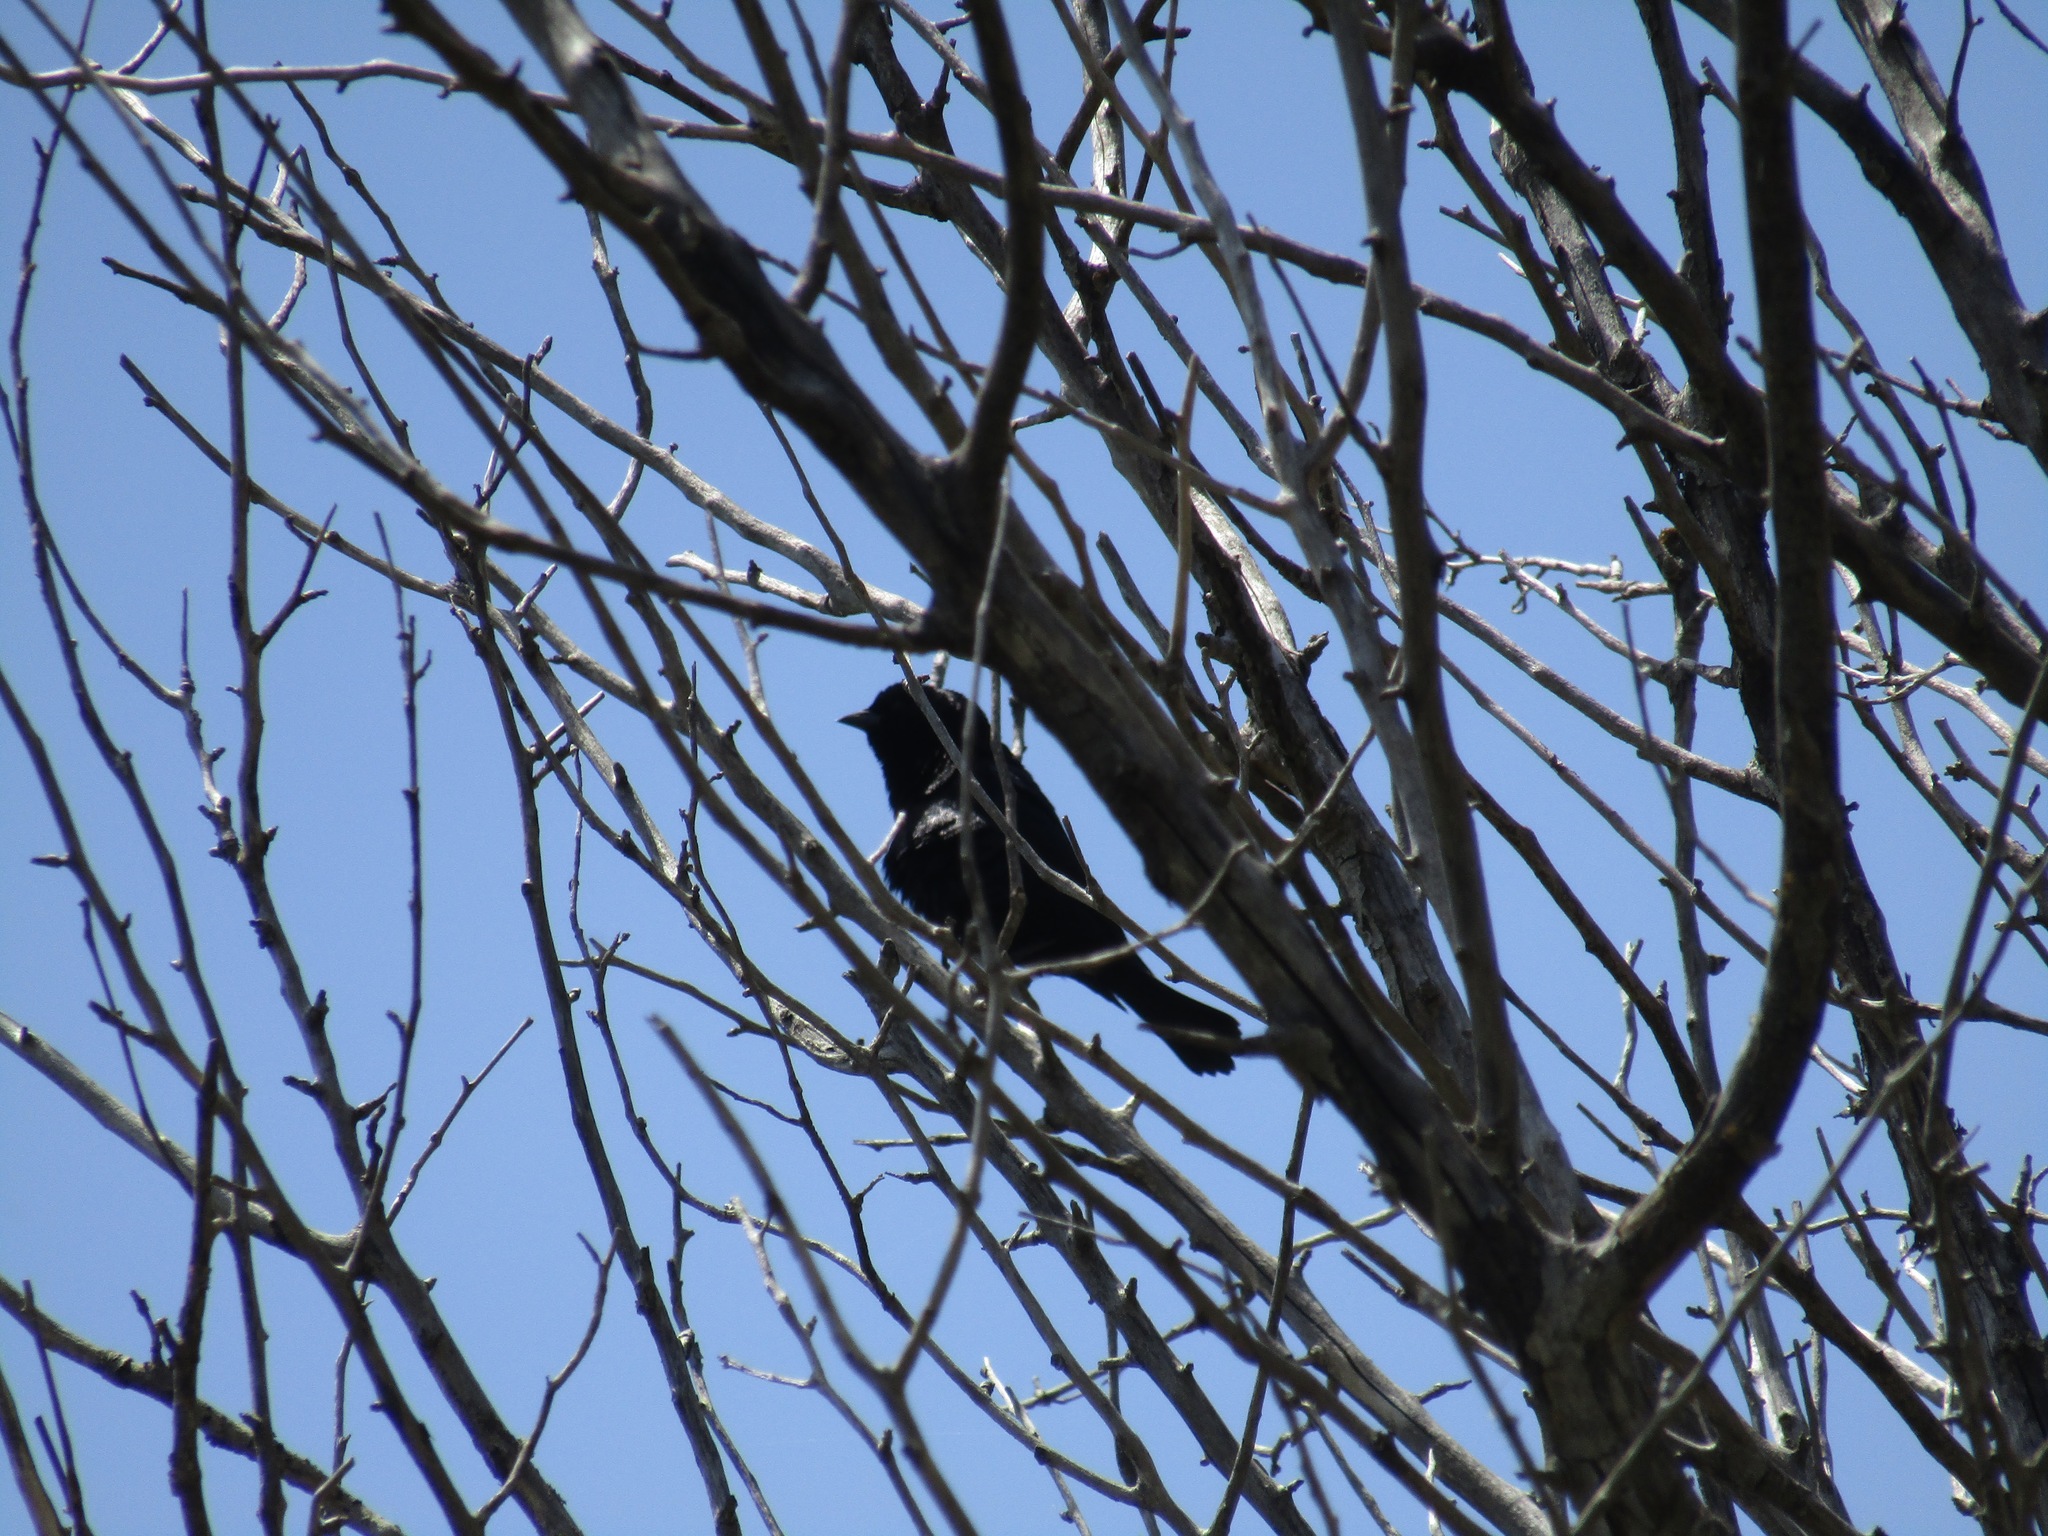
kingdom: Animalia
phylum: Chordata
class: Aves
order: Passeriformes
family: Icteridae
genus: Molothrus
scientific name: Molothrus bonariensis
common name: Shiny cowbird
